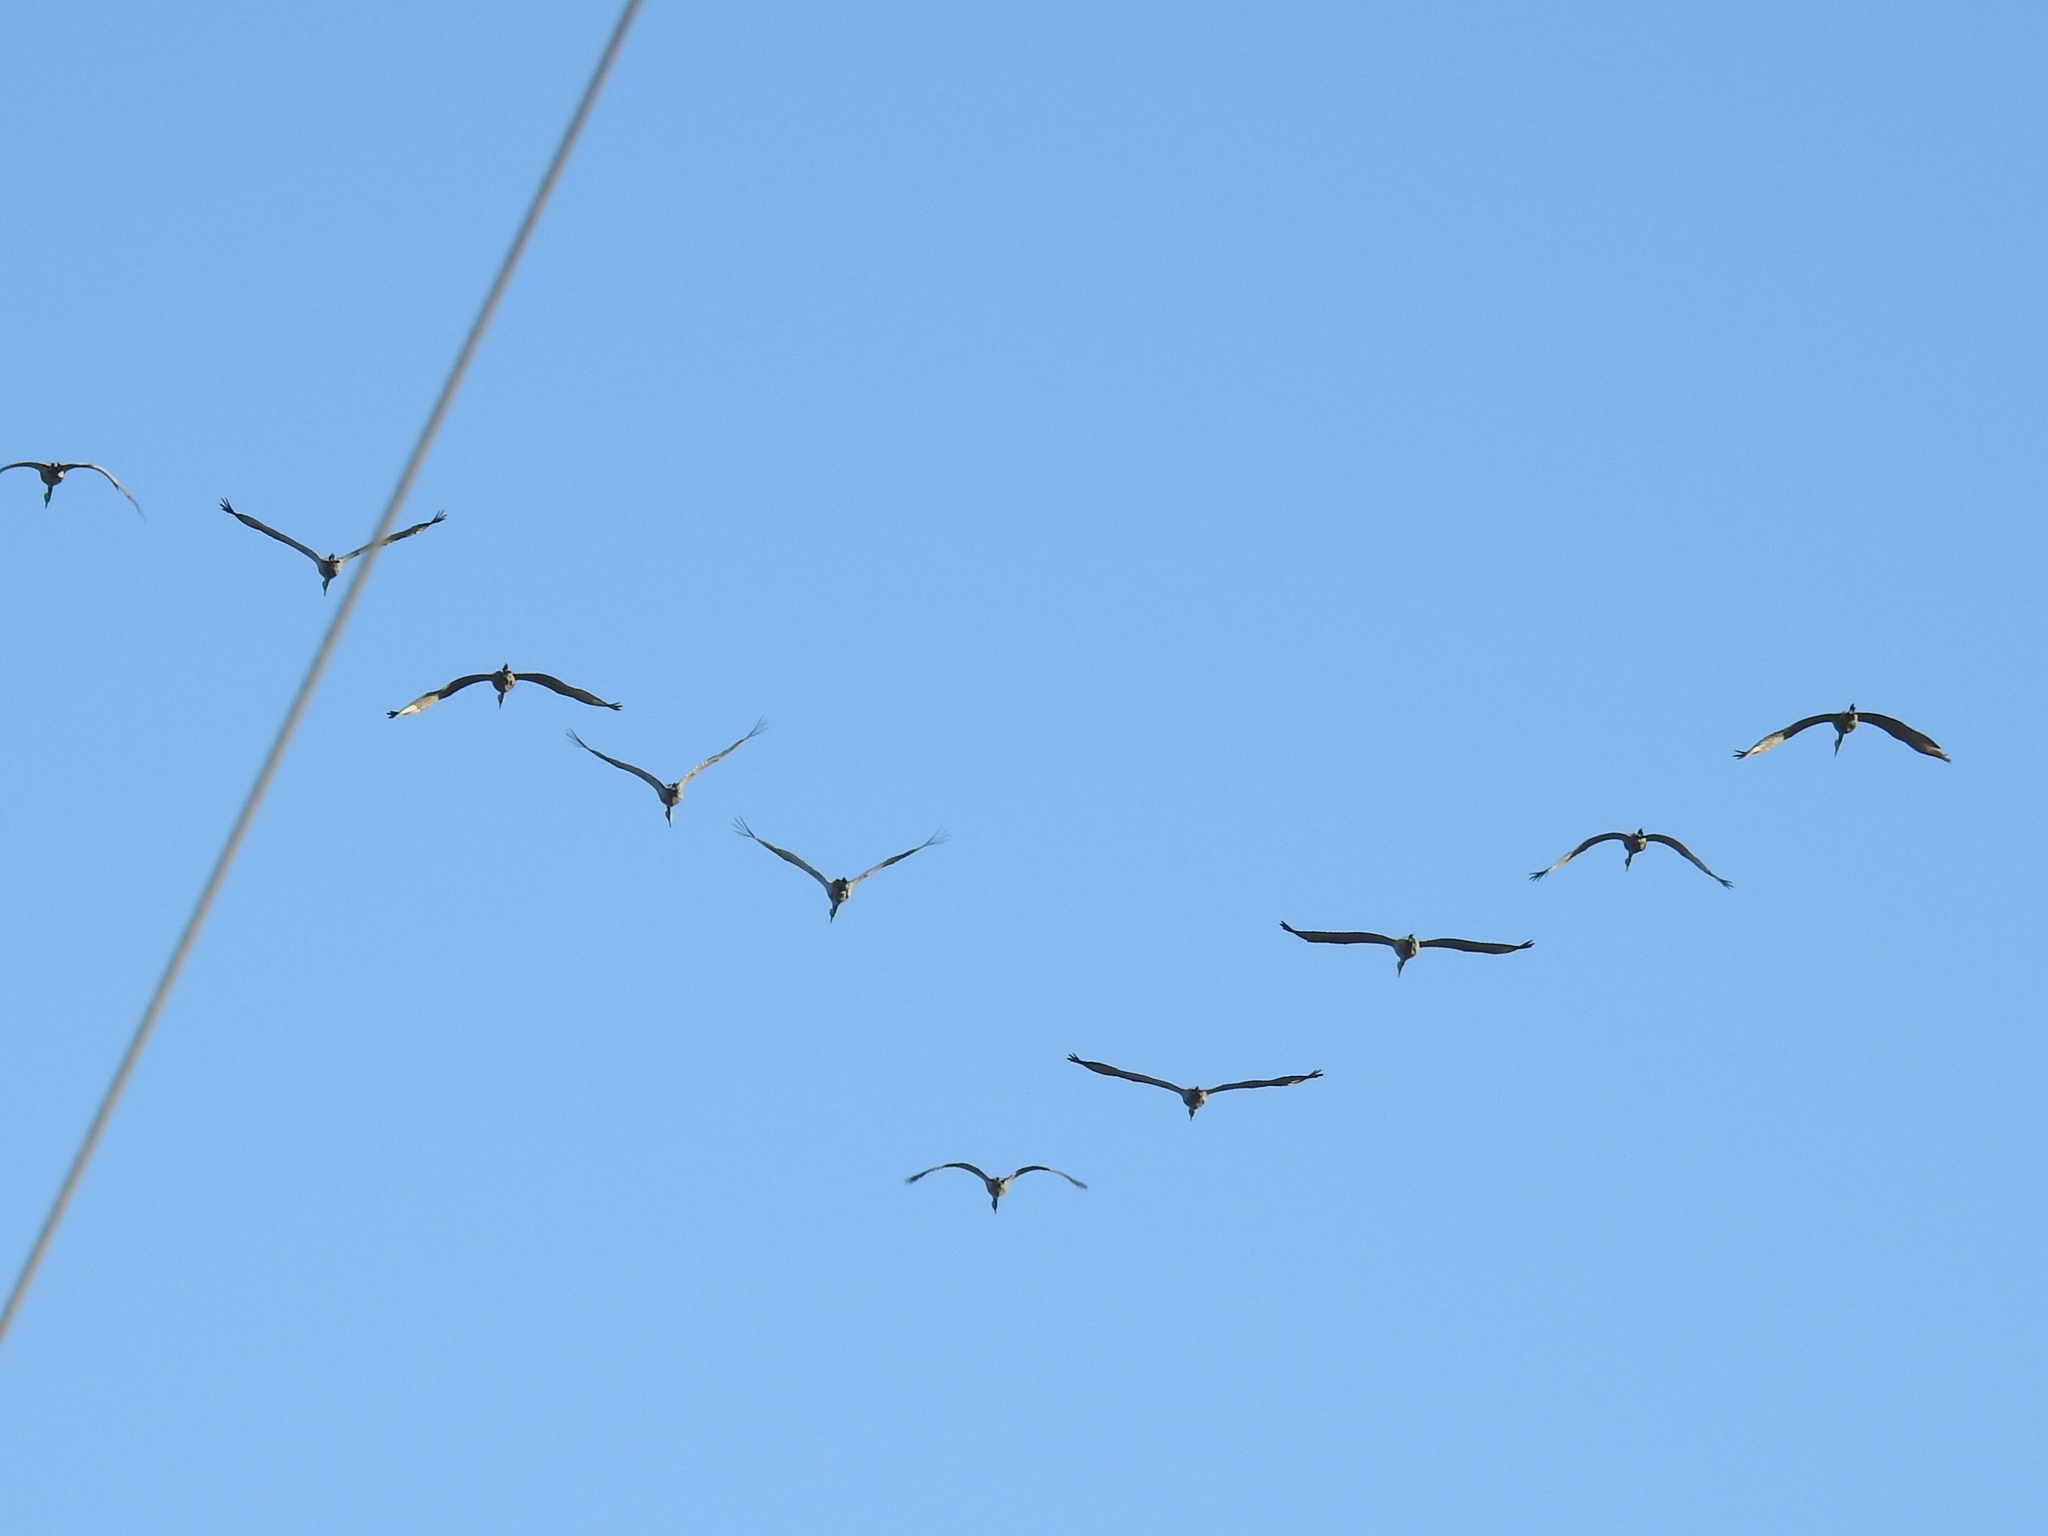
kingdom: Animalia
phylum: Chordata
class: Aves
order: Gruiformes
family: Gruidae
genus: Grus
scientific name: Grus canadensis
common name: Sandhill crane
